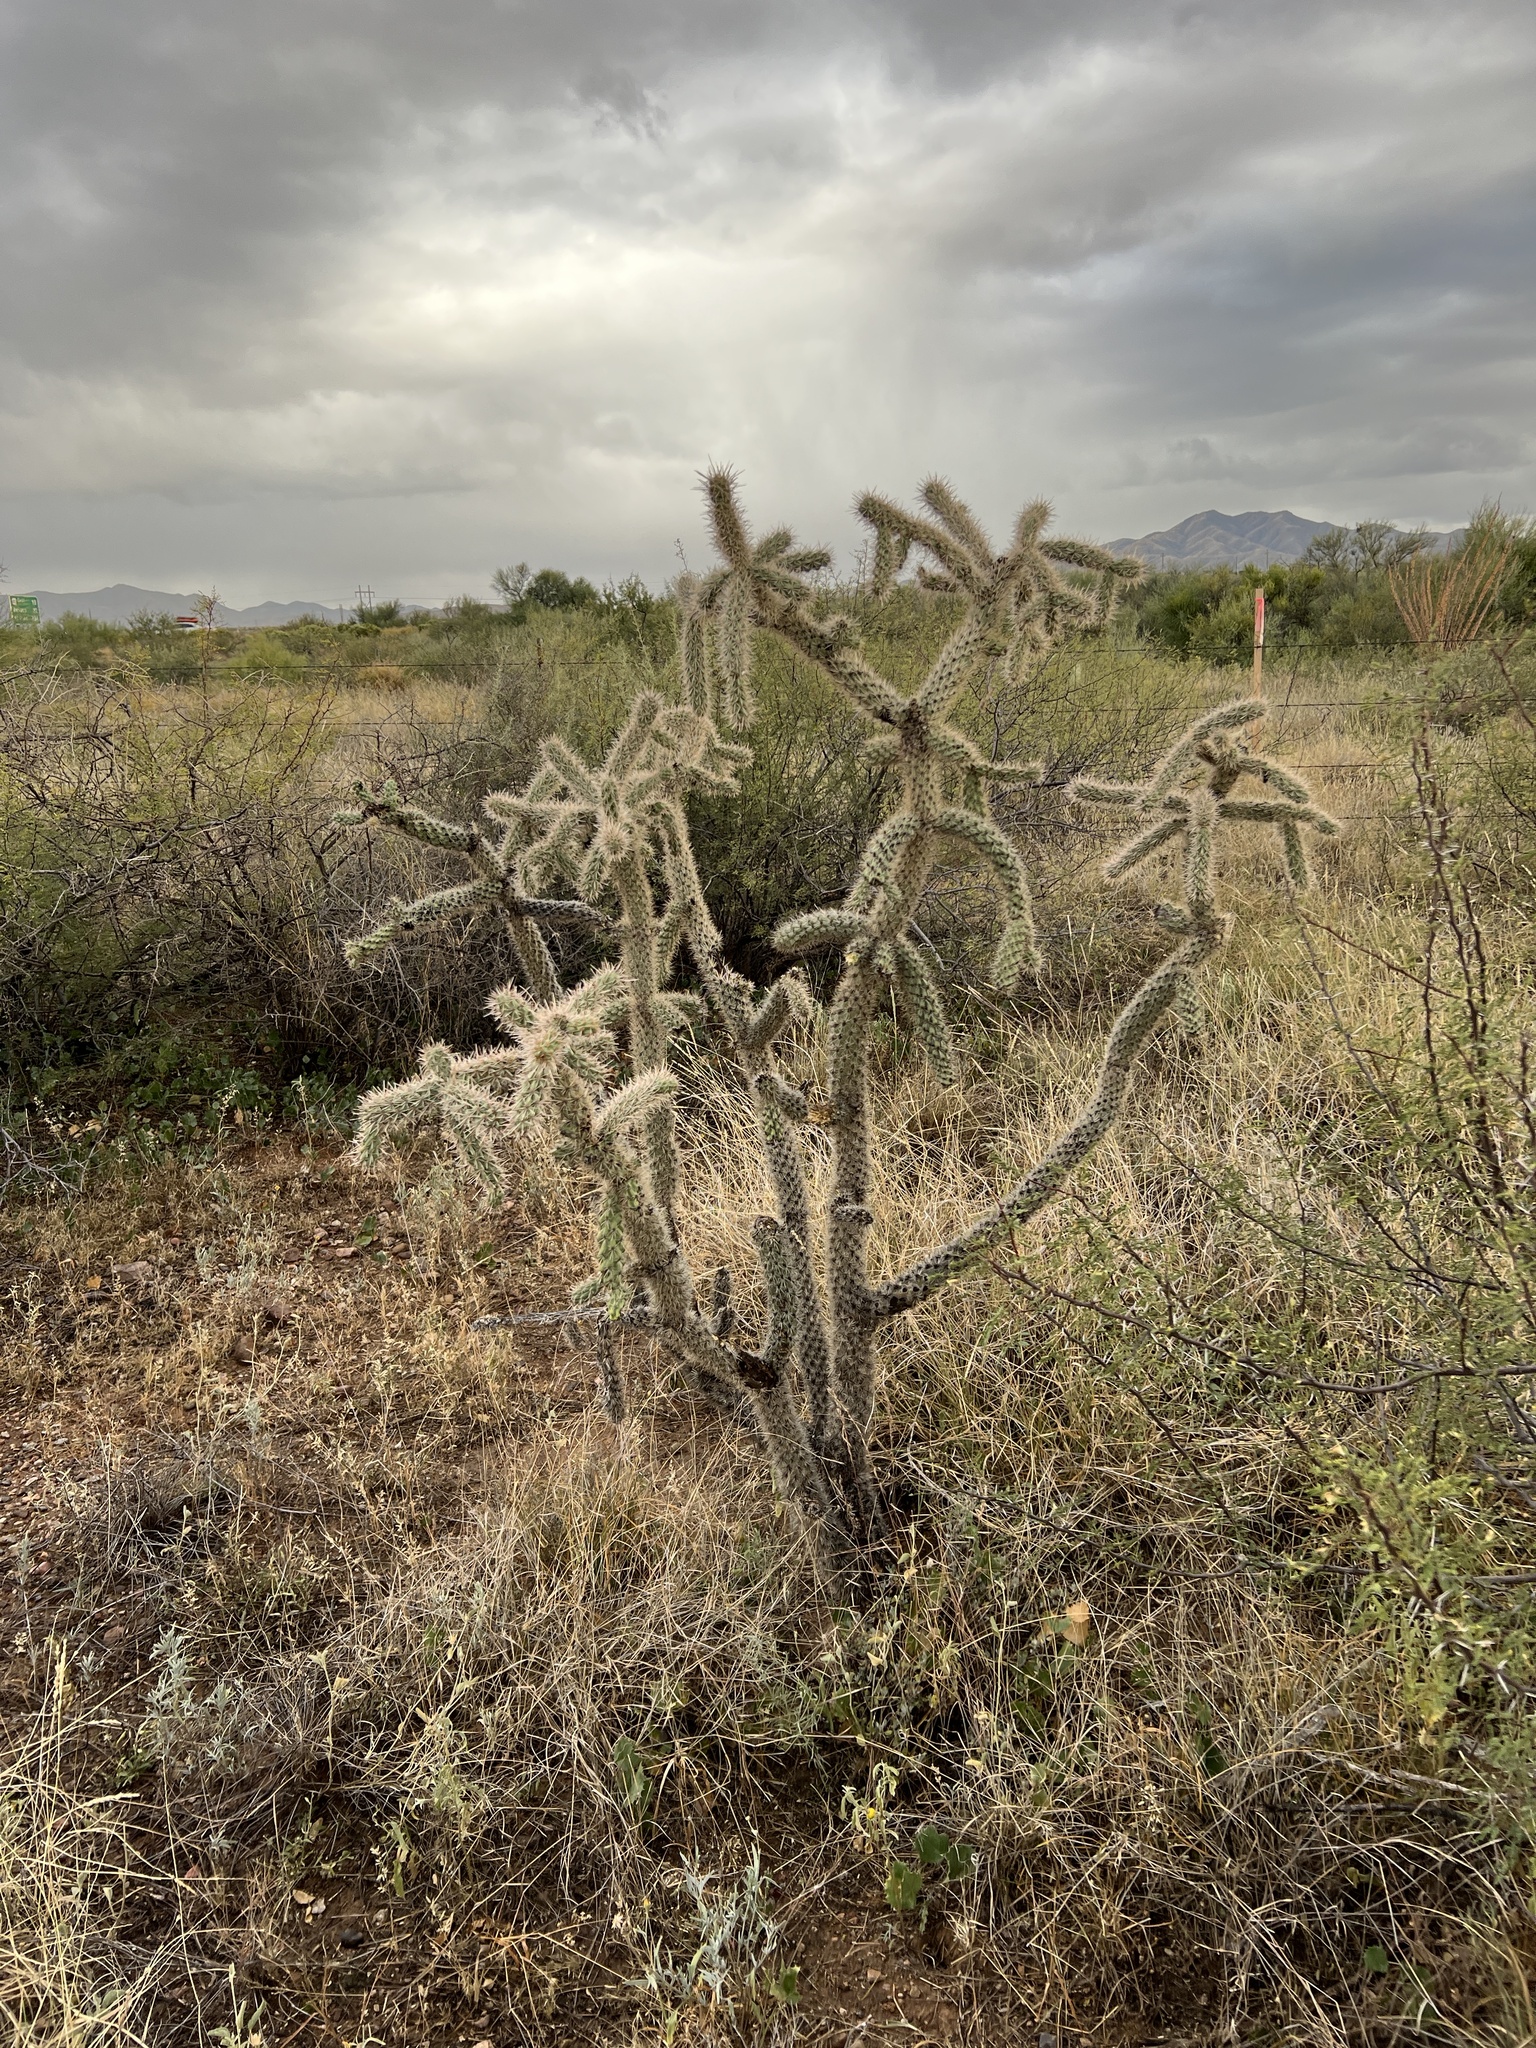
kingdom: Plantae
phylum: Tracheophyta
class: Magnoliopsida
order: Caryophyllales
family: Cactaceae
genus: Cylindropuntia
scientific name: Cylindropuntia imbricata
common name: Candelabrum cactus
